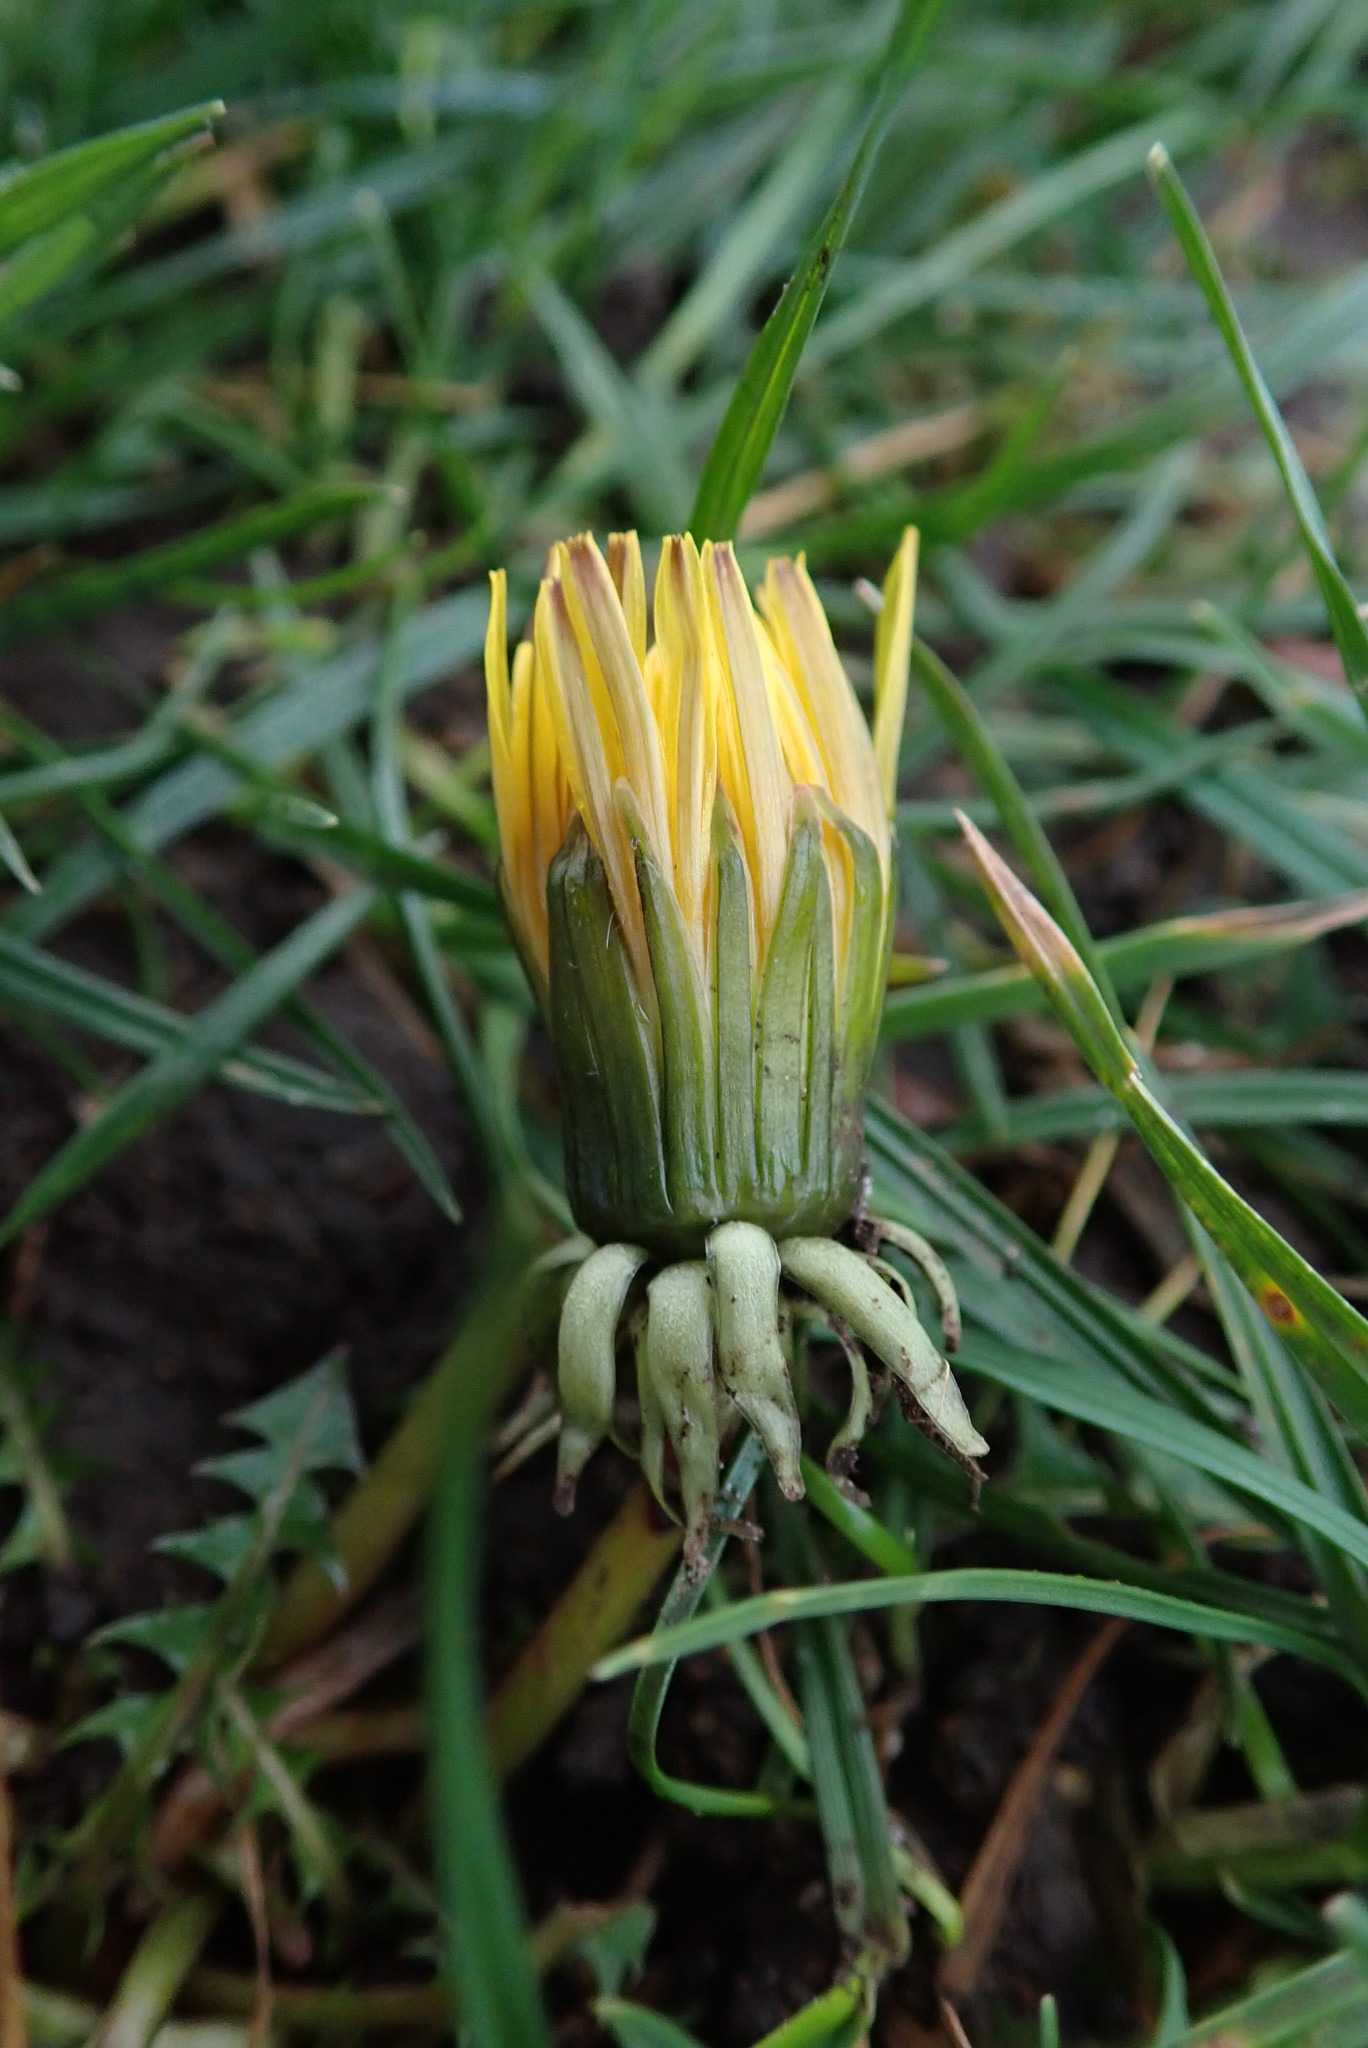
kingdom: Plantae
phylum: Tracheophyta
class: Magnoliopsida
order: Asterales
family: Asteraceae
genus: Taraxacum
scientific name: Taraxacum officinale
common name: Common dandelion
